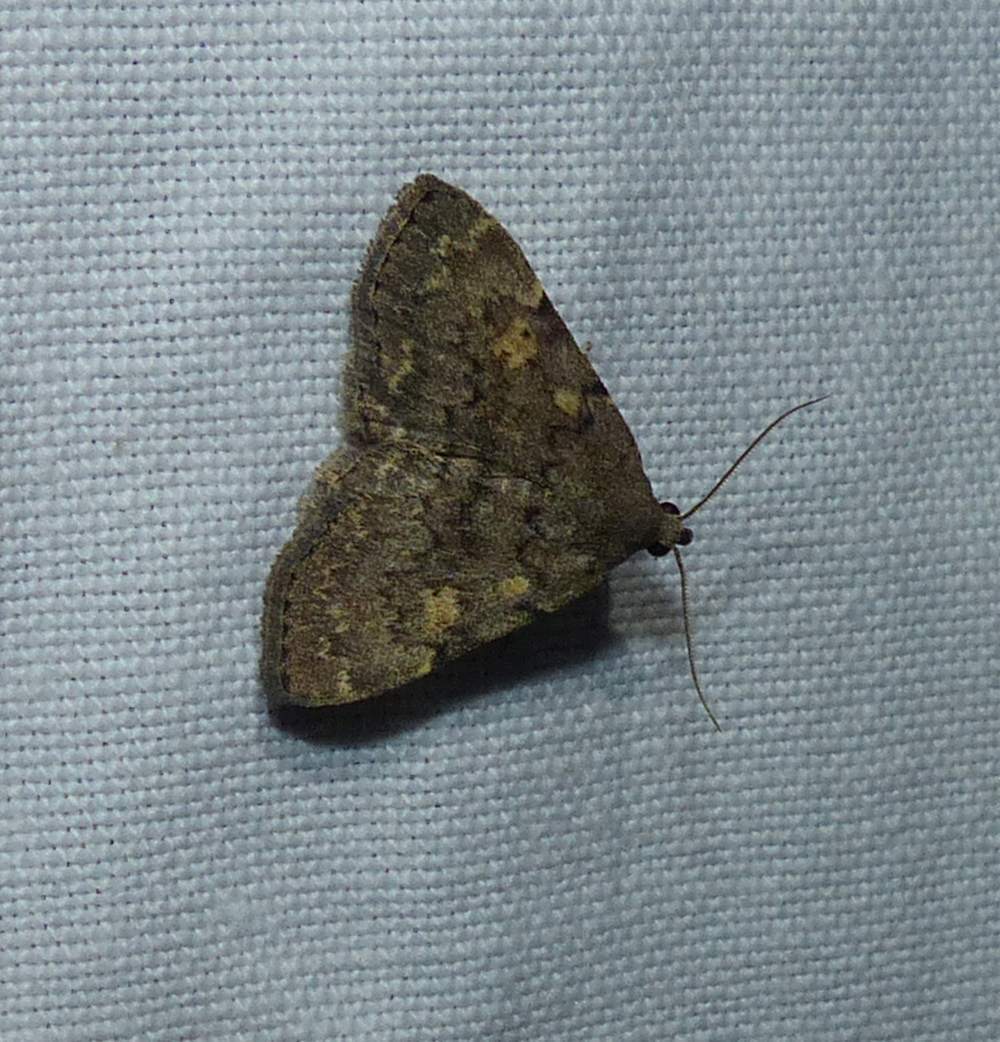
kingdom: Animalia
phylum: Arthropoda
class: Insecta
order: Lepidoptera
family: Erebidae
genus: Idia
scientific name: Idia aemula
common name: Common idia moth
